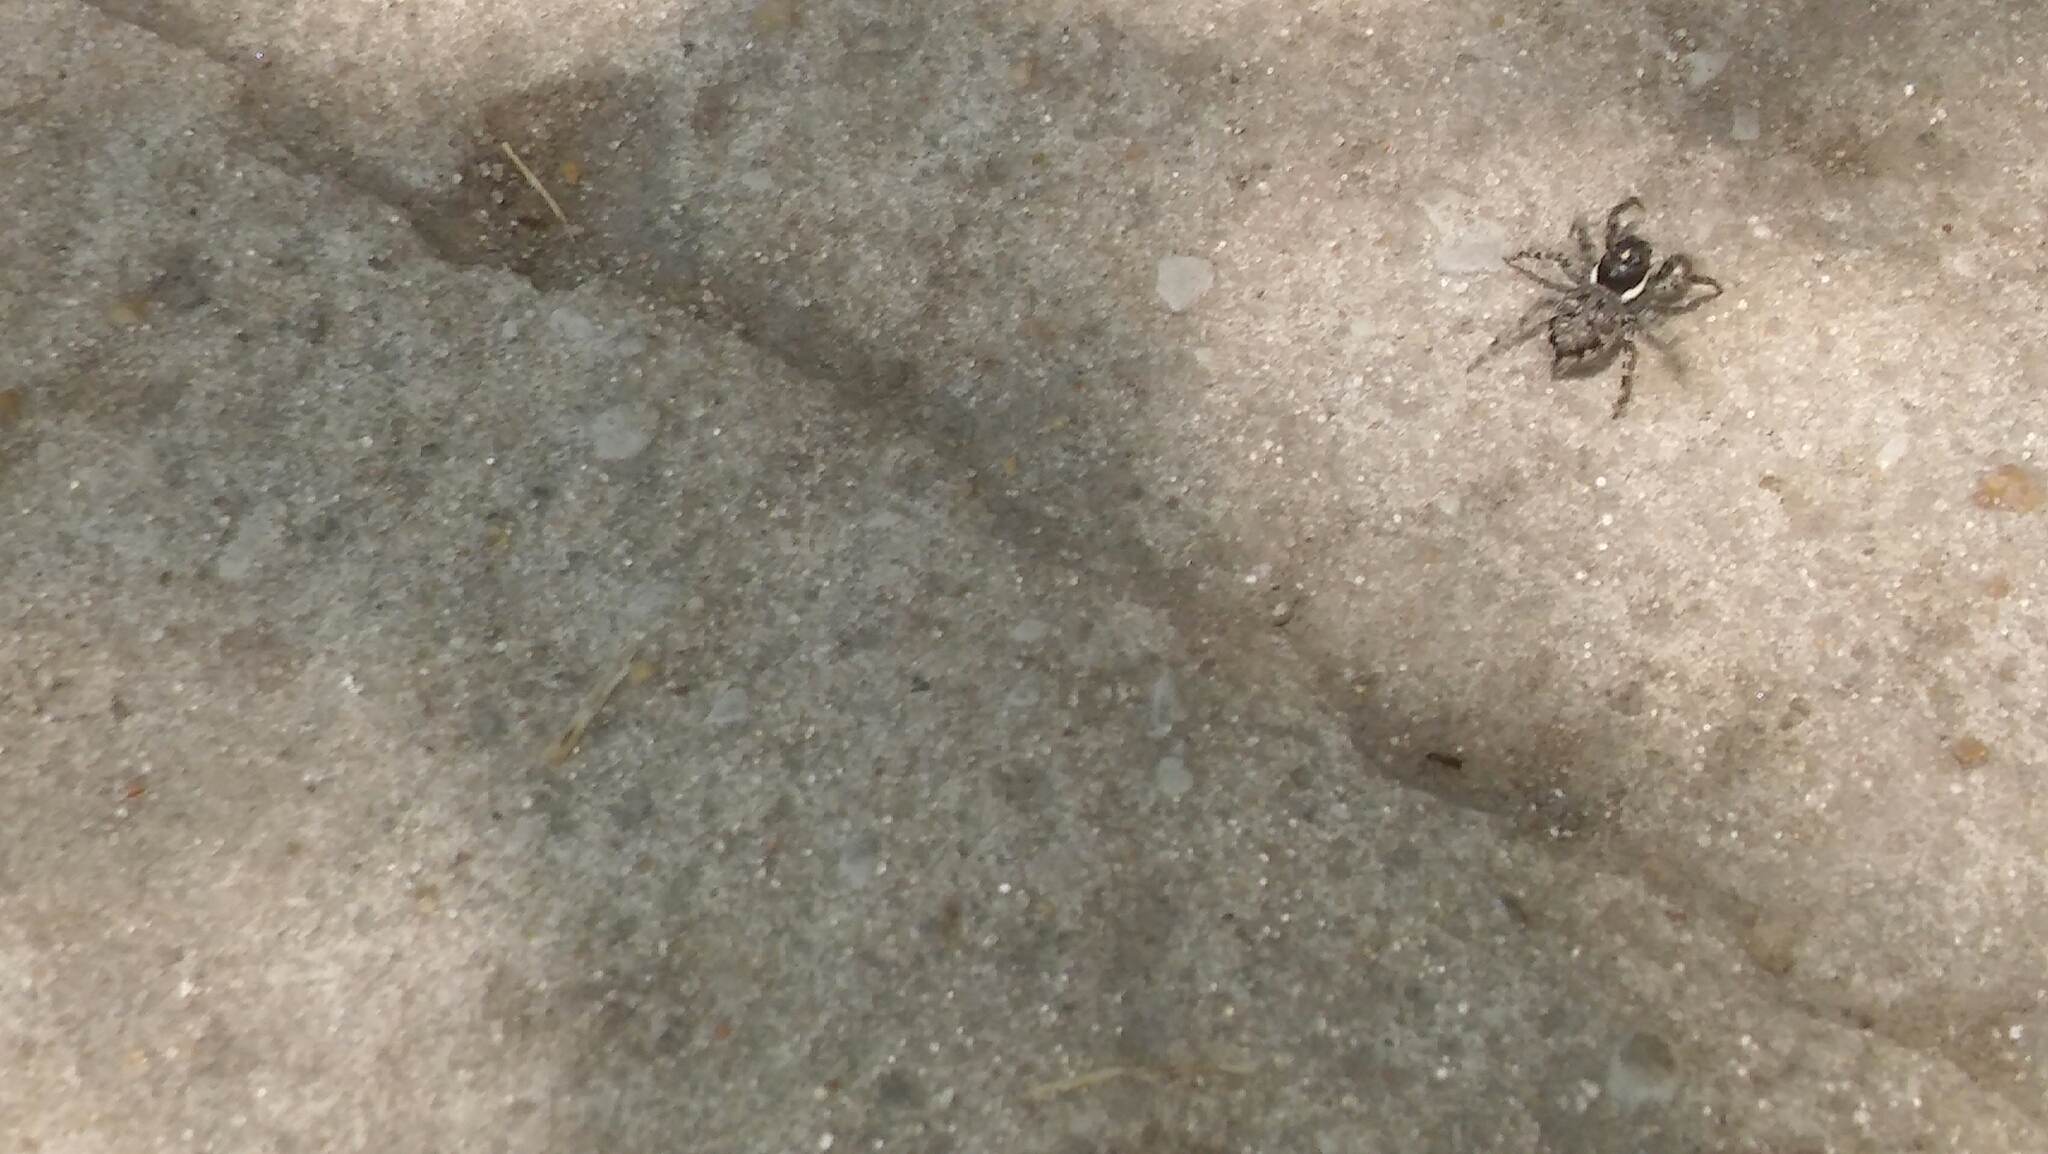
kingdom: Animalia
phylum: Arthropoda
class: Arachnida
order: Araneae
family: Salticidae
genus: Menemerus
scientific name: Menemerus semilimbatus
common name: Jumping spider
